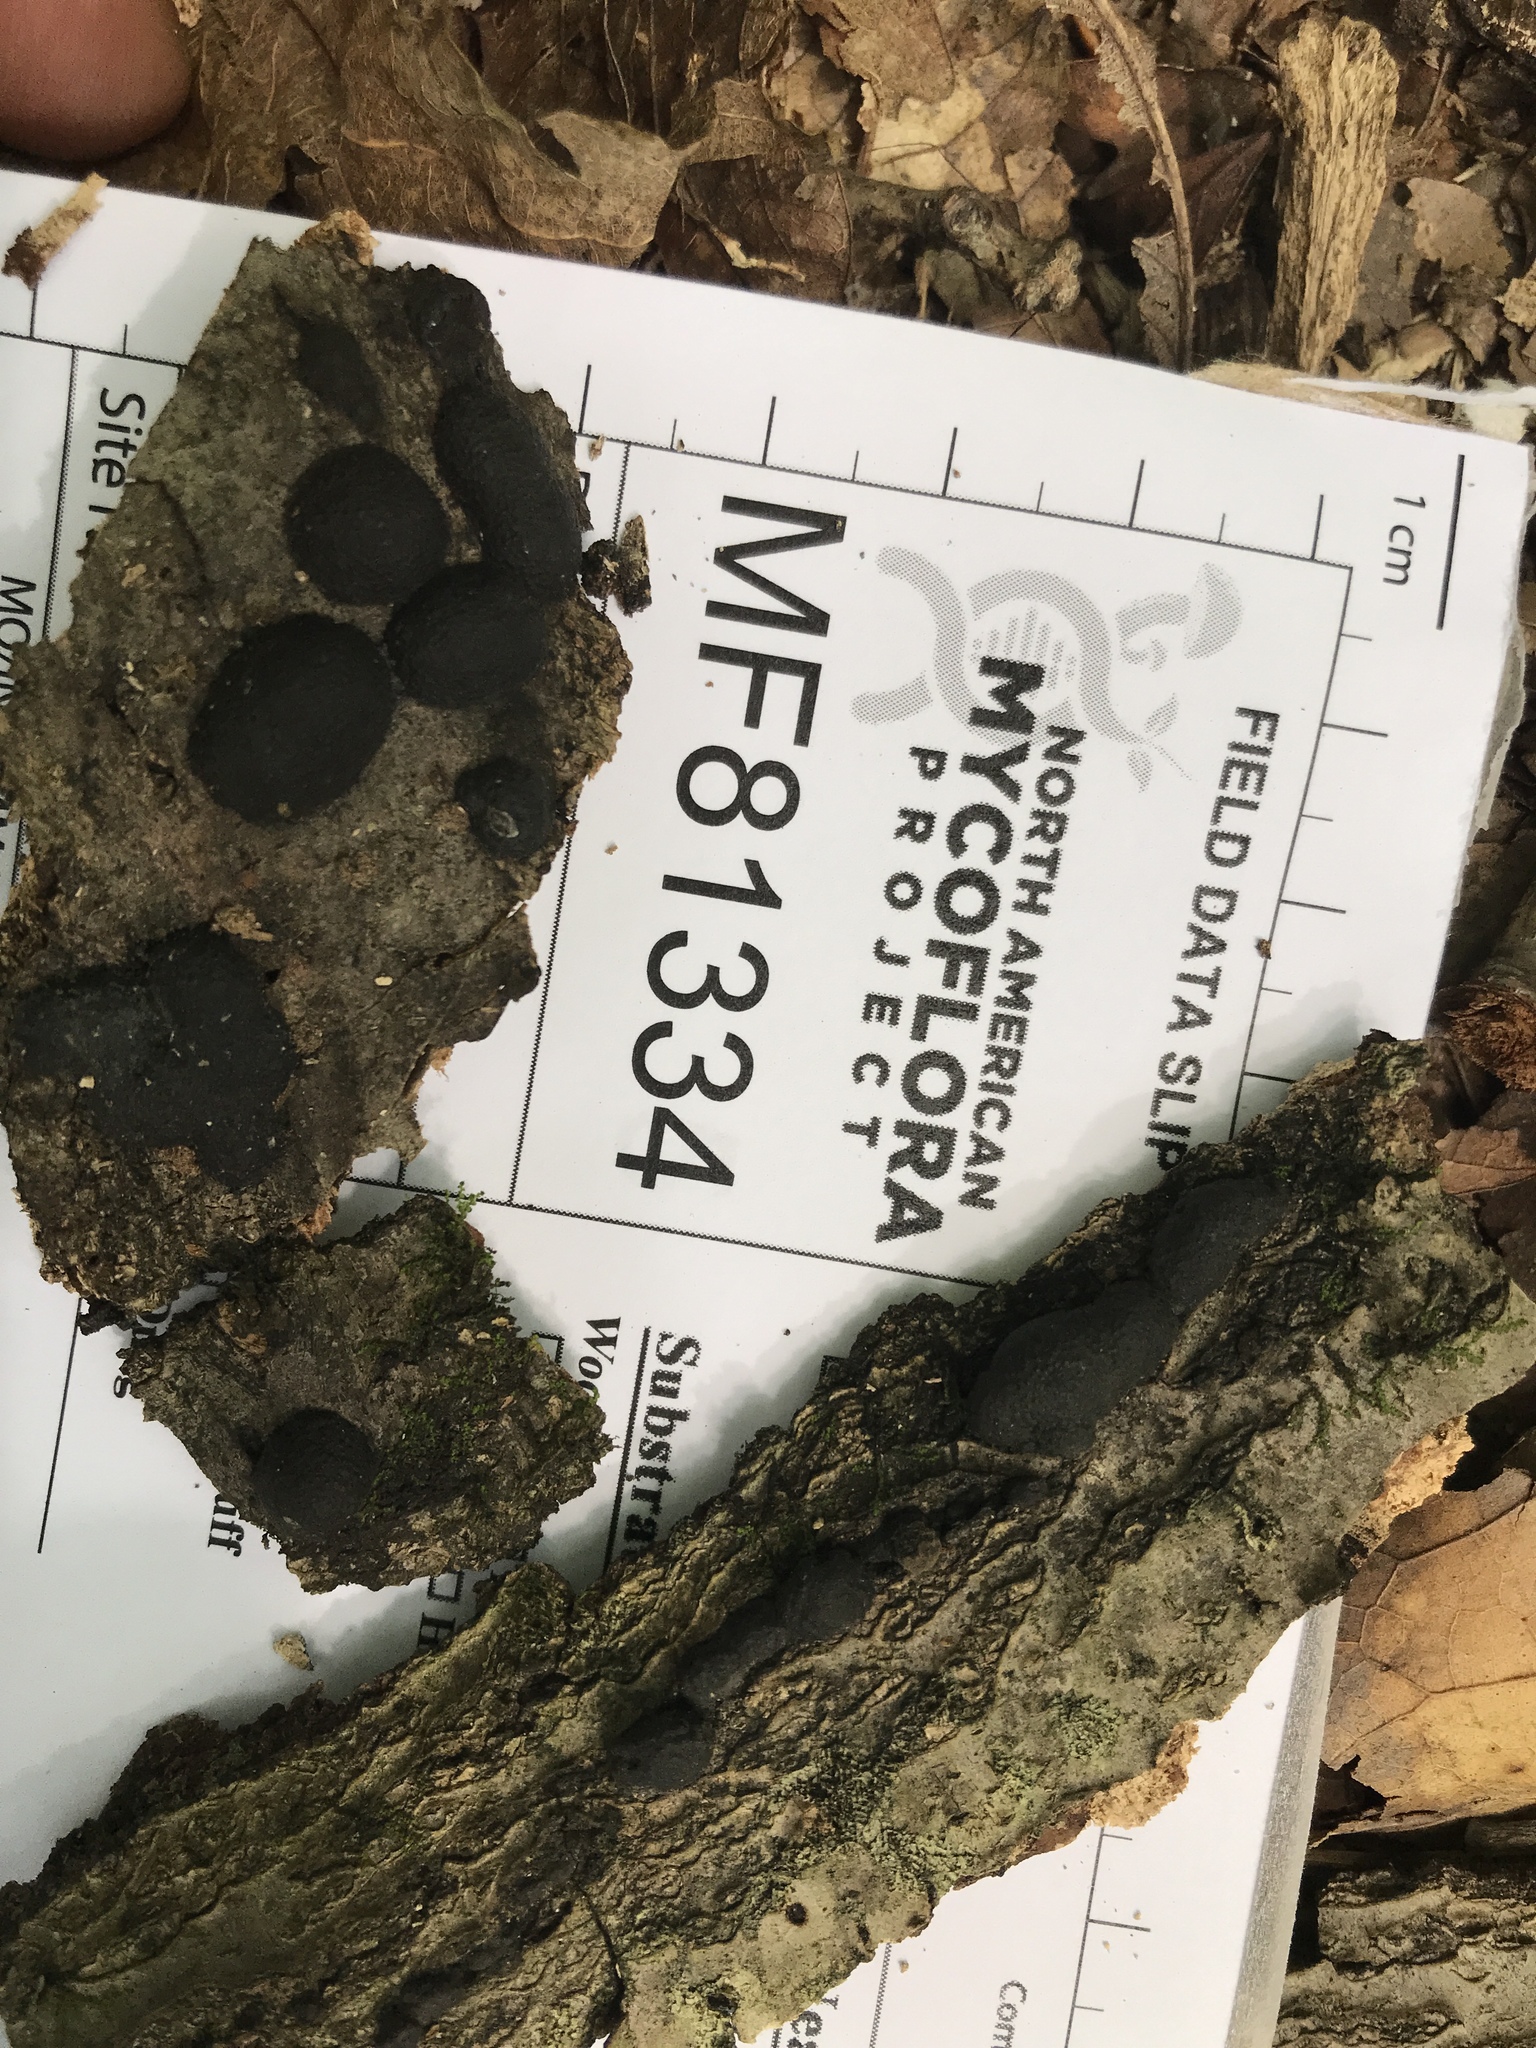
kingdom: Fungi
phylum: Ascomycota
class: Sordariomycetes
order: Xylariales
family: Hypoxylaceae
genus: Daldinia
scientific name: Daldinia childiae
